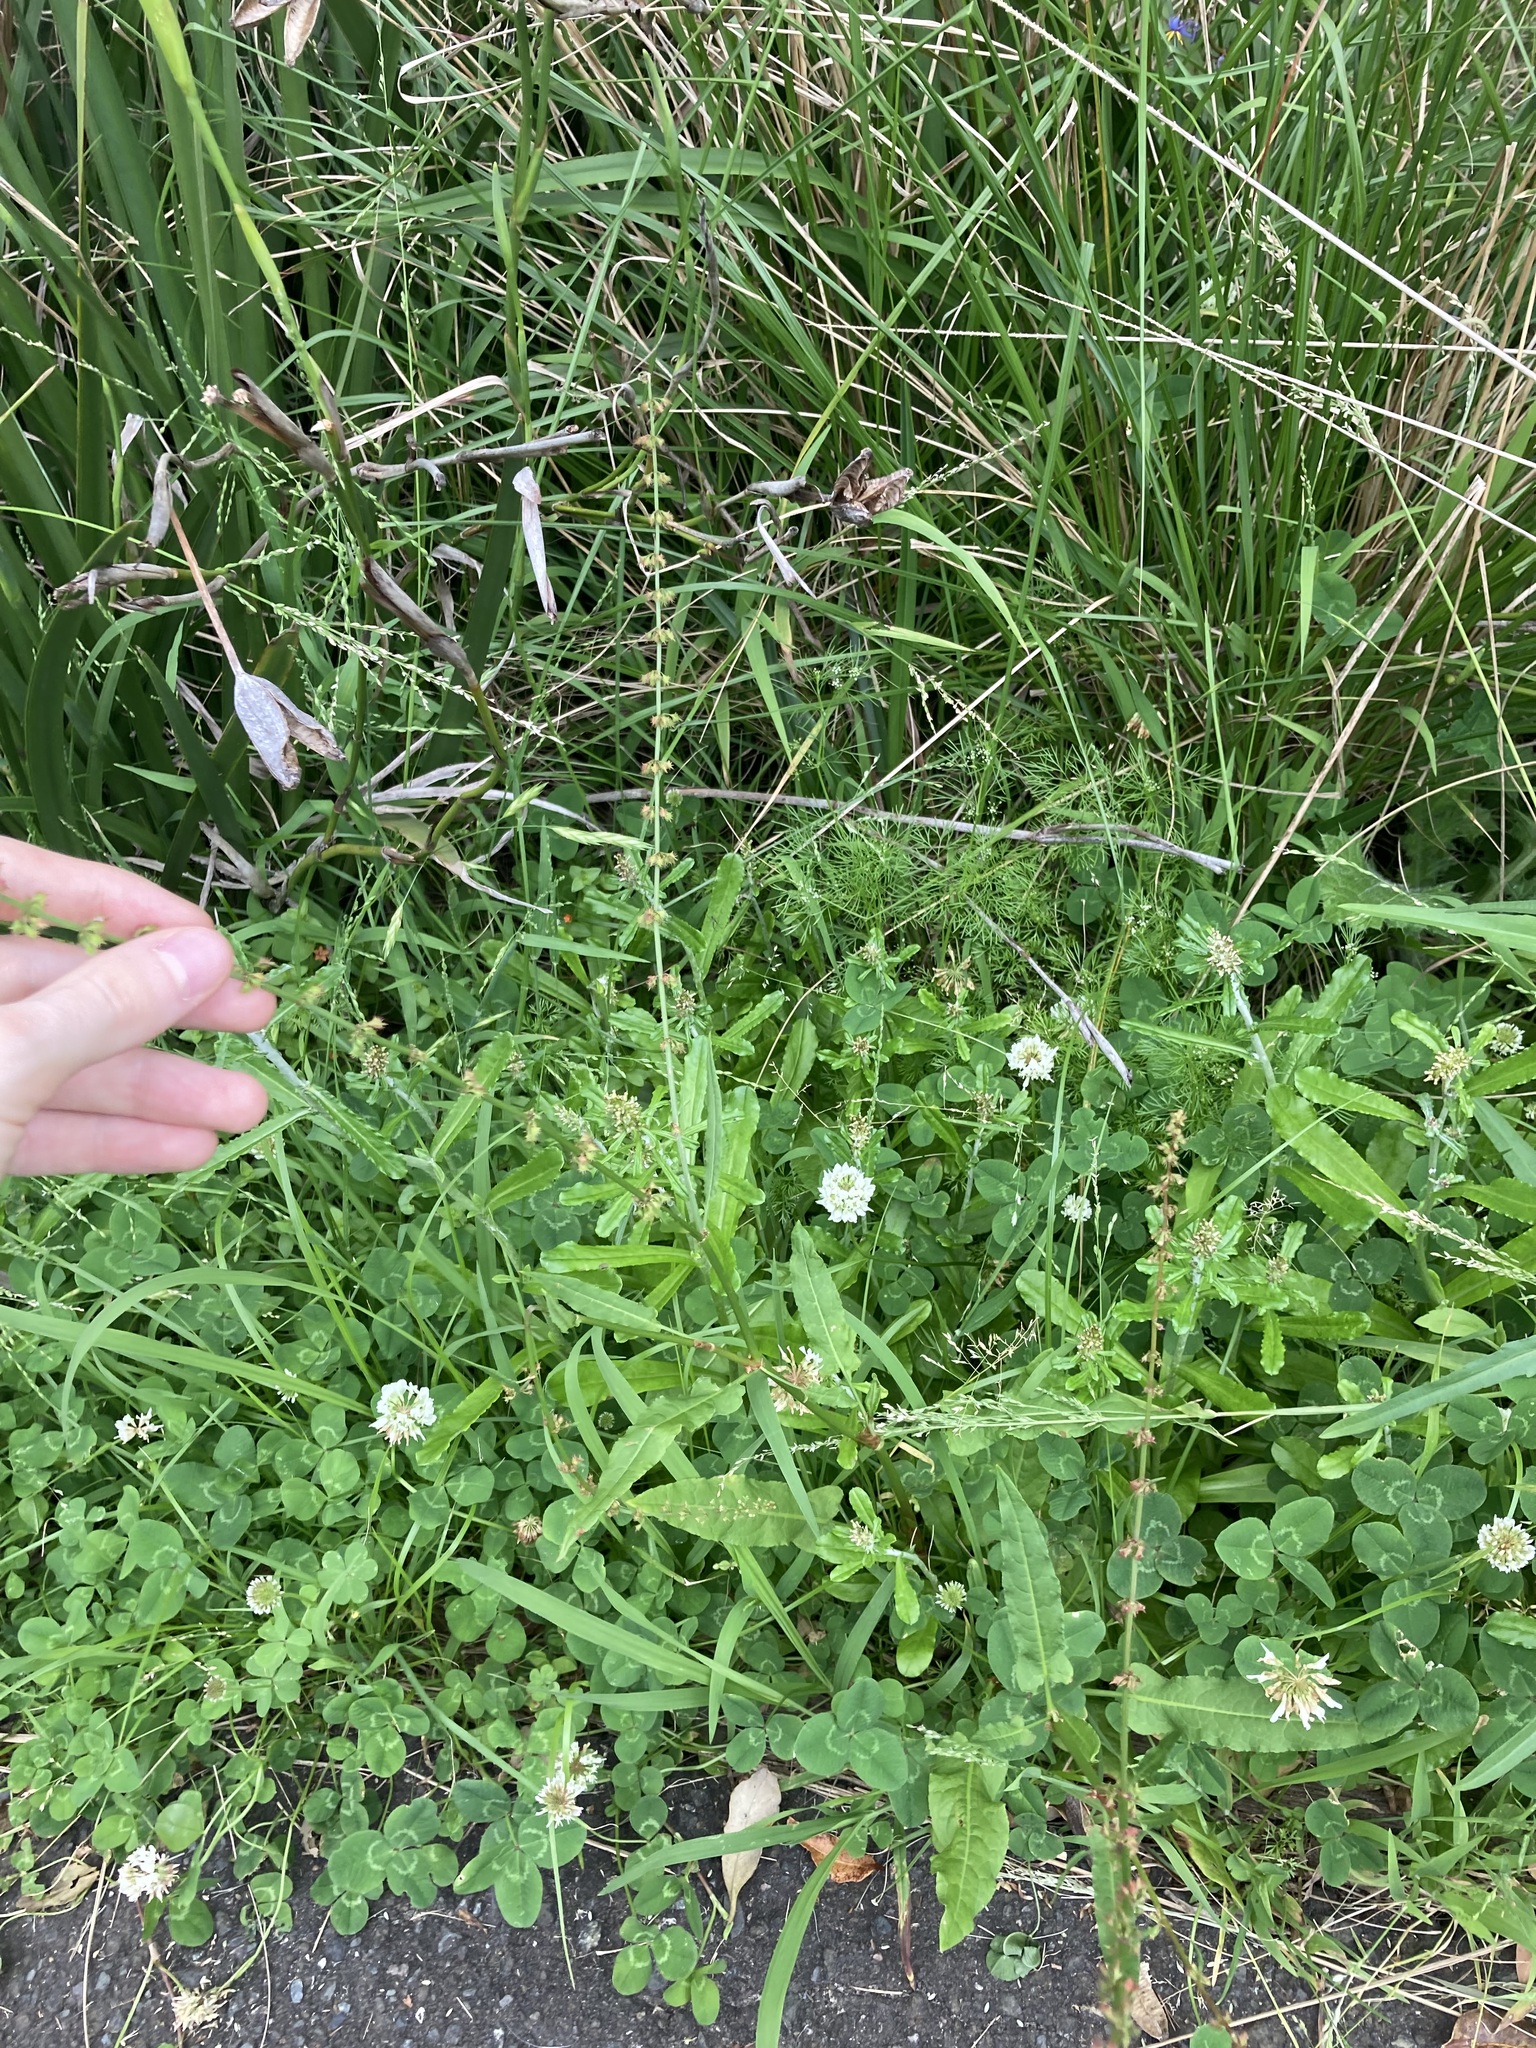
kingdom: Plantae
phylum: Tracheophyta
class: Magnoliopsida
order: Caryophyllales
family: Polygonaceae
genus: Rumex
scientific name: Rumex brownii
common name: Hooked dock
